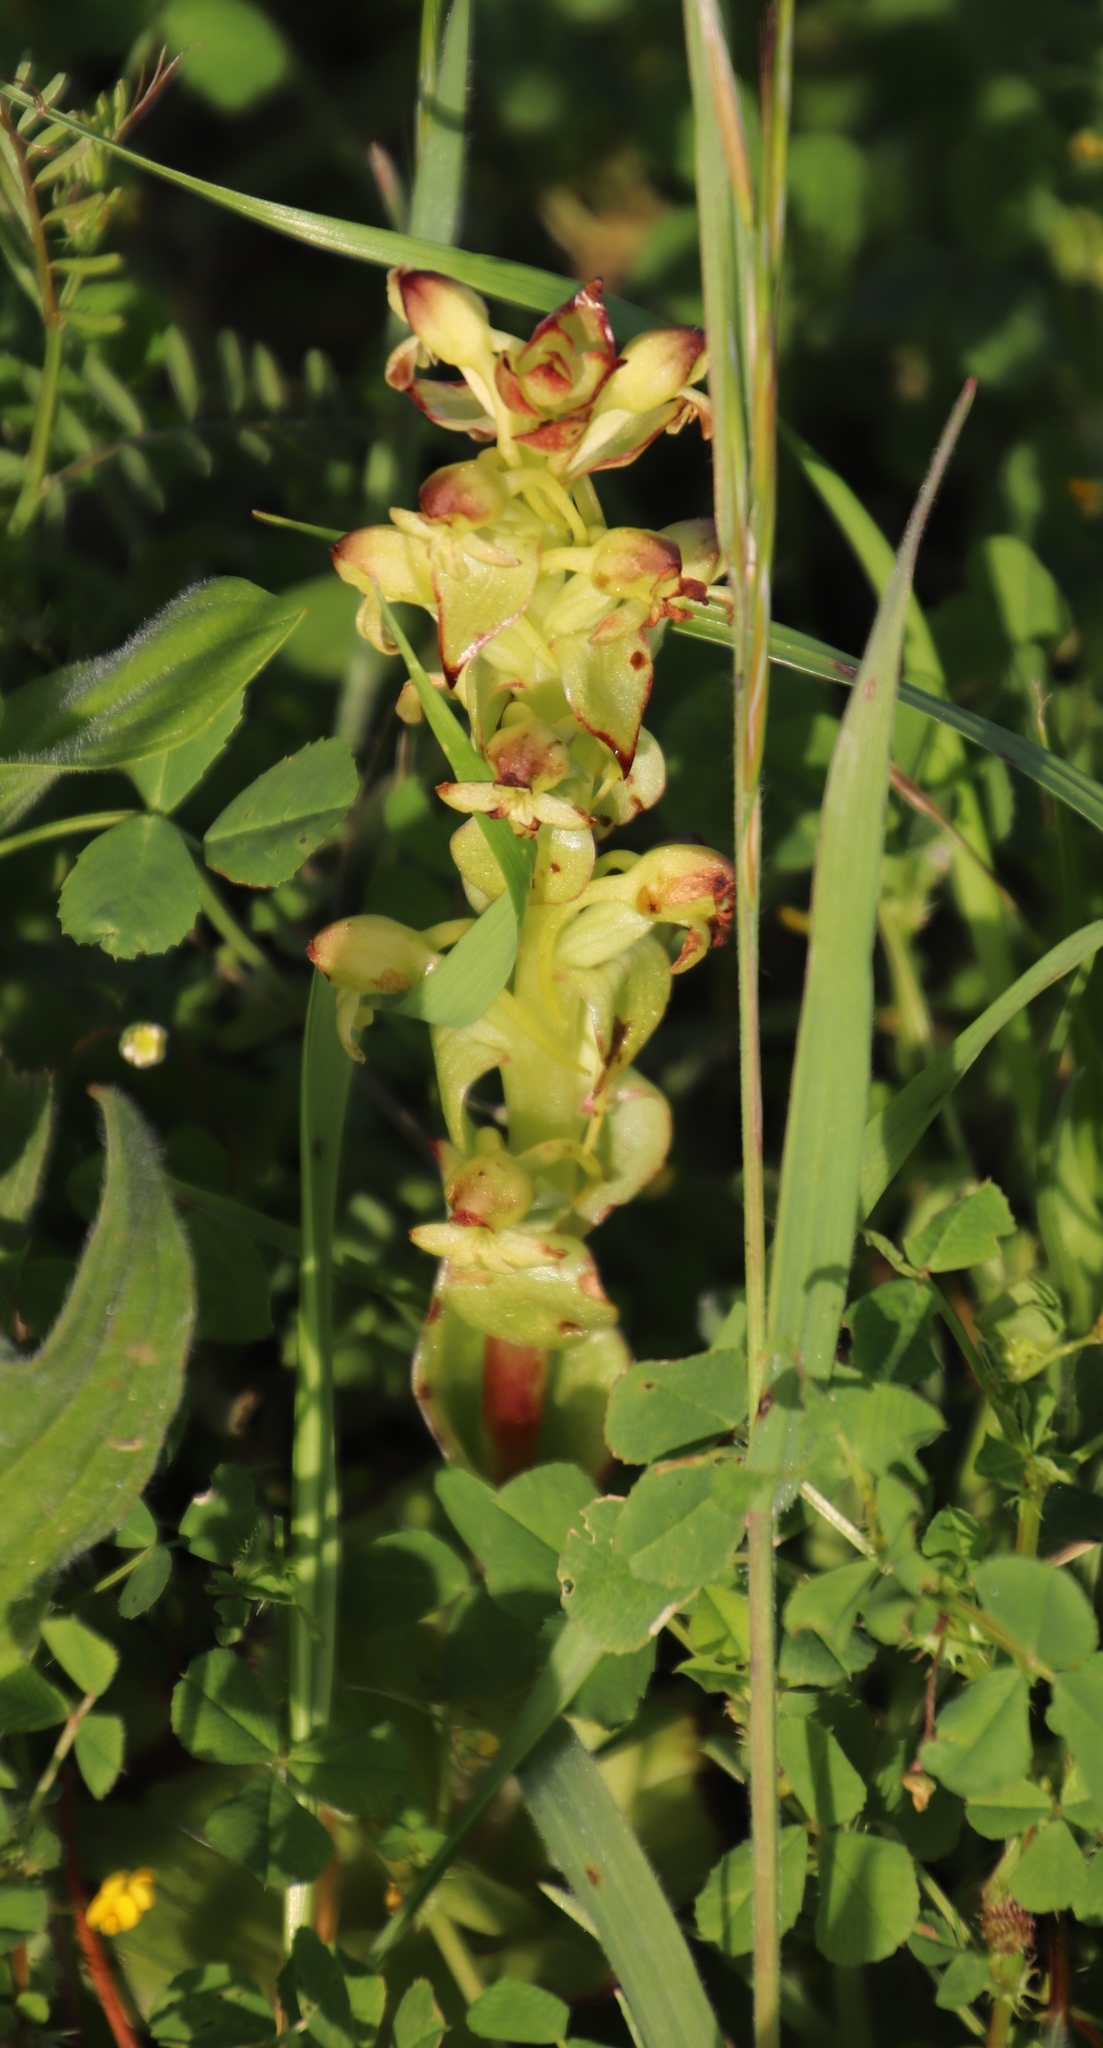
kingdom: Plantae
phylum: Tracheophyta
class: Liliopsida
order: Asparagales
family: Orchidaceae
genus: Satyrium
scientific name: Satyrium odorum
